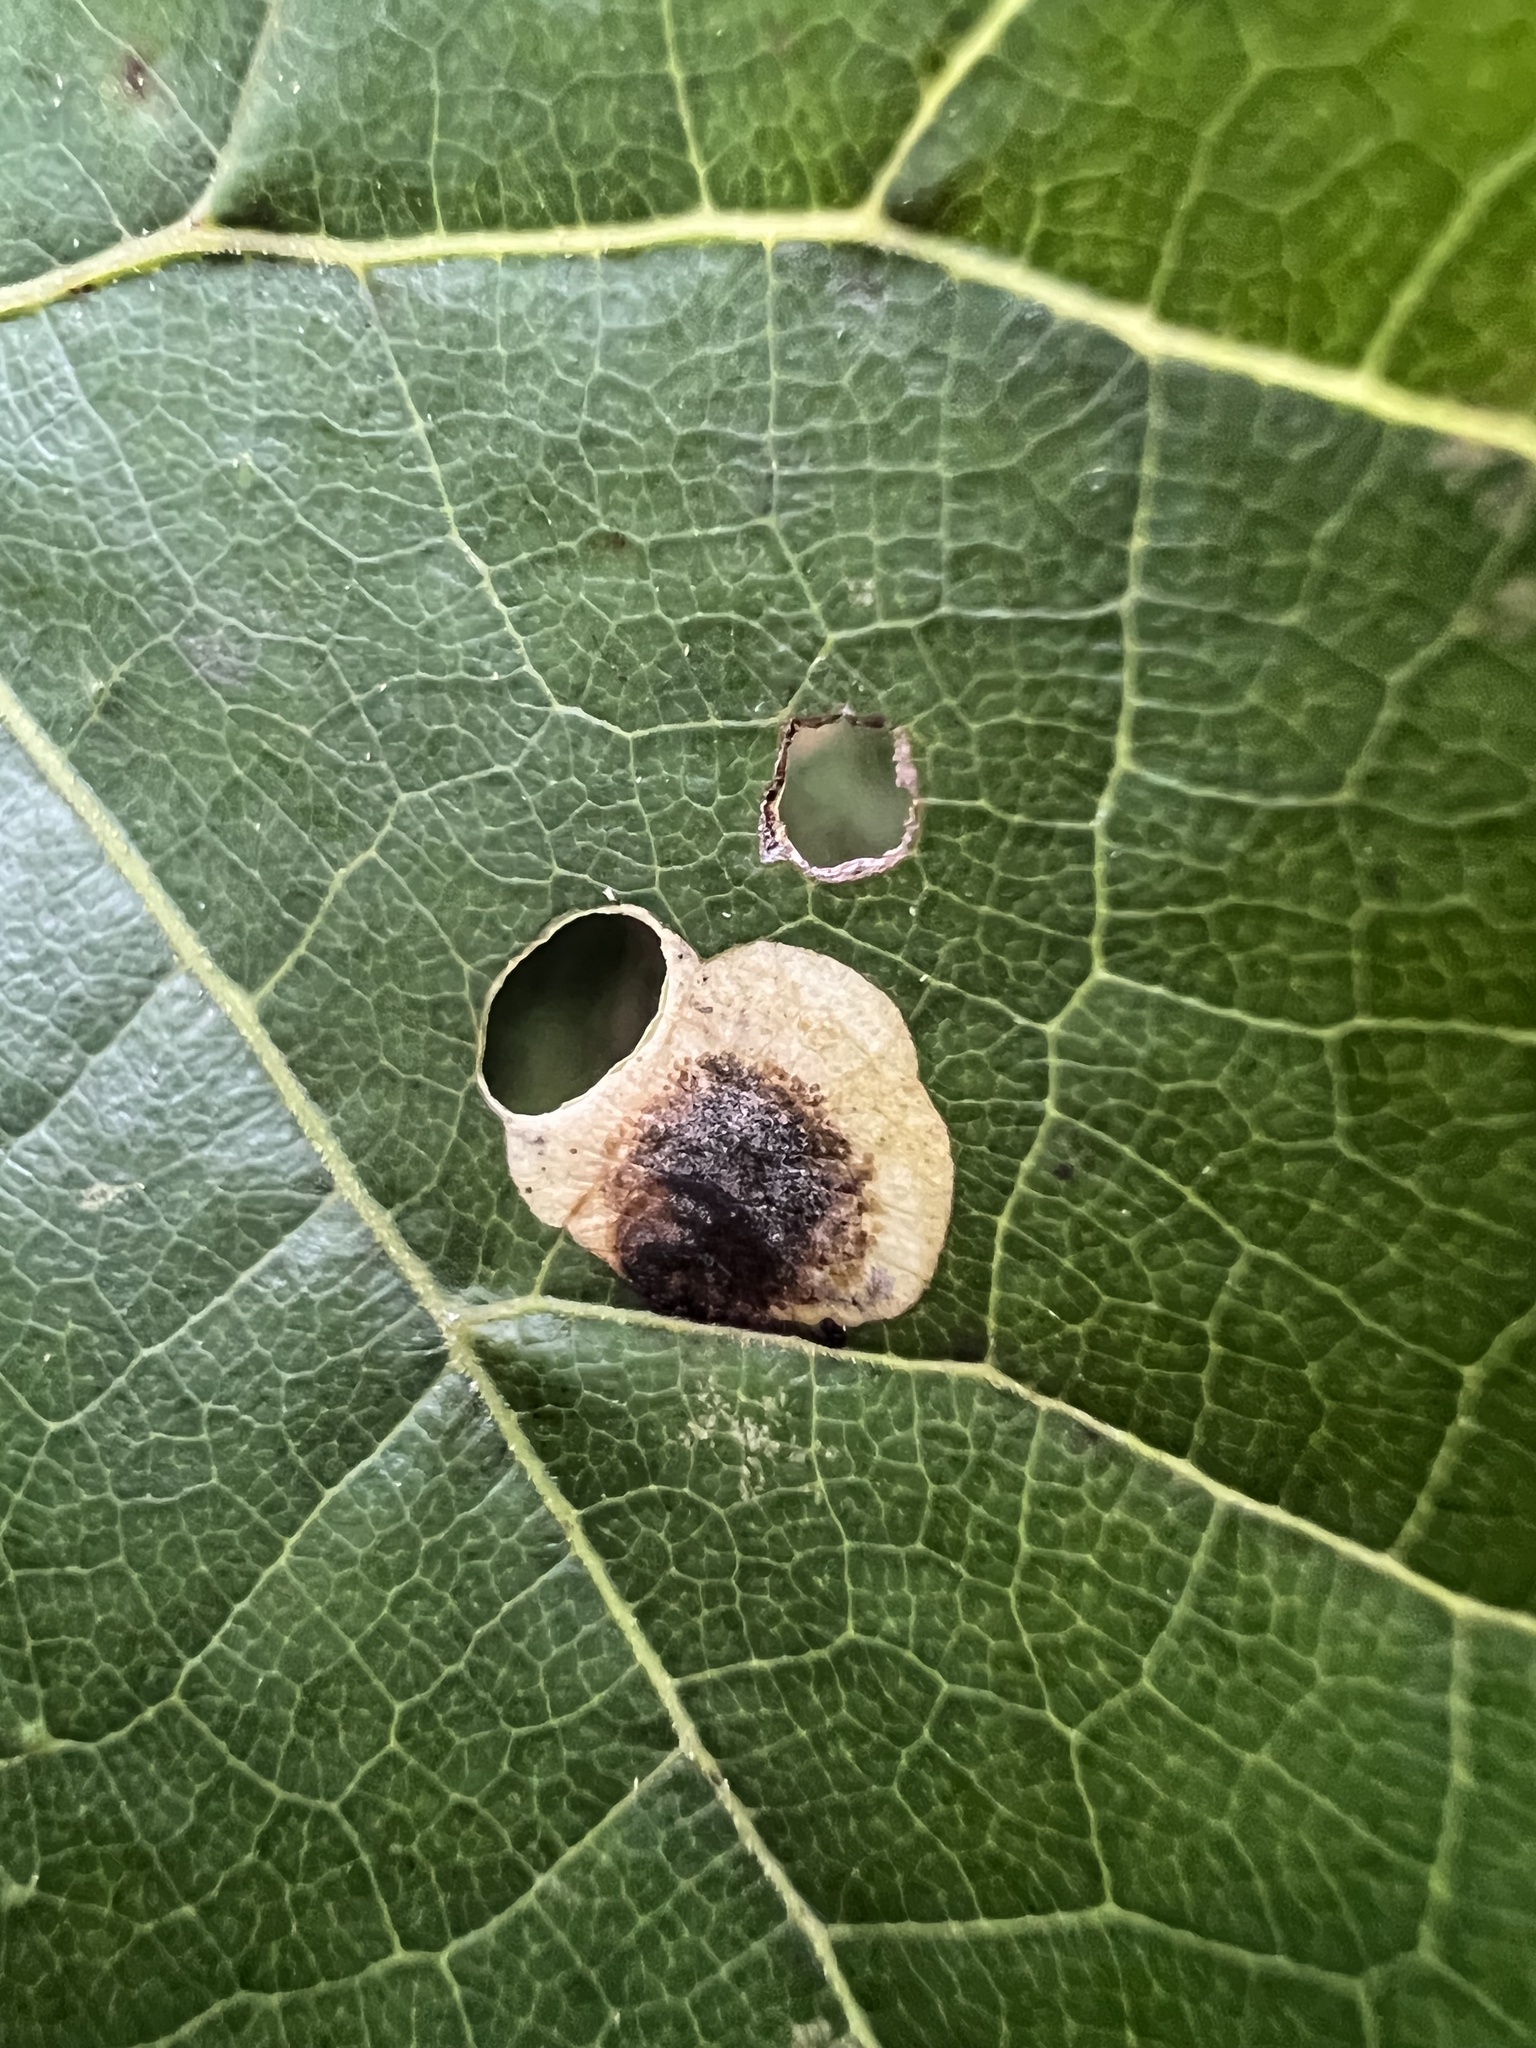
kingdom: Animalia
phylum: Arthropoda
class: Insecta
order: Lepidoptera
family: Heliozelidae
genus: Antispila
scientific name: Antispila oinophylla
